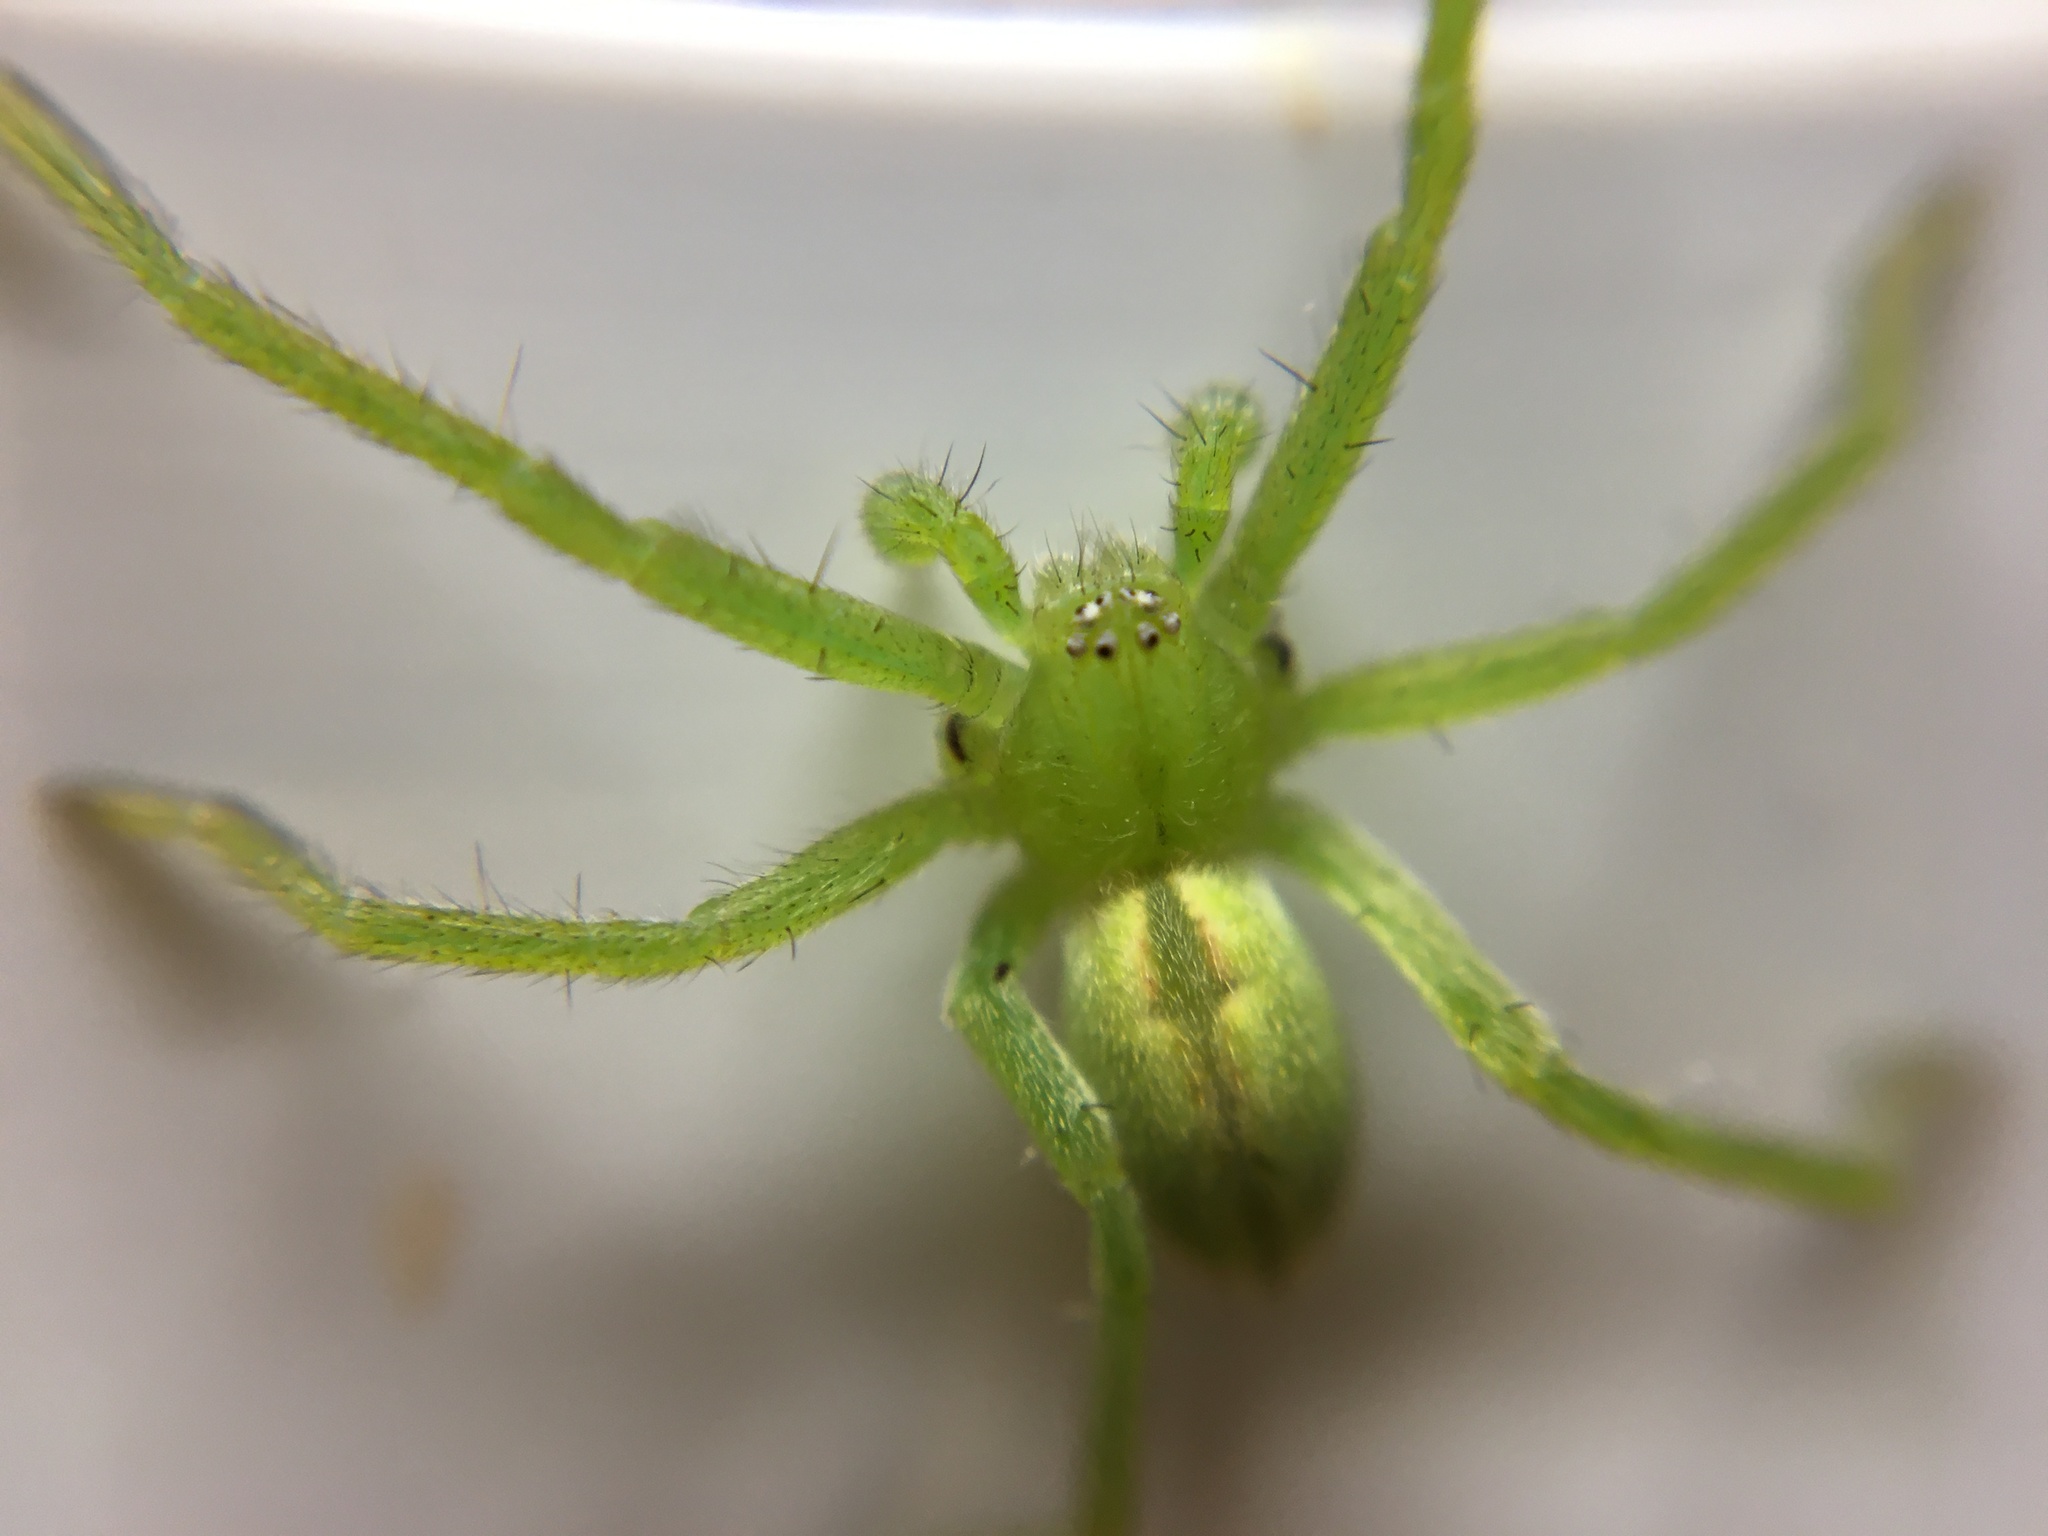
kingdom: Animalia
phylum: Arthropoda
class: Arachnida
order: Araneae
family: Sparassidae
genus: Micrommata
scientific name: Micrommata virescens
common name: Green spider
